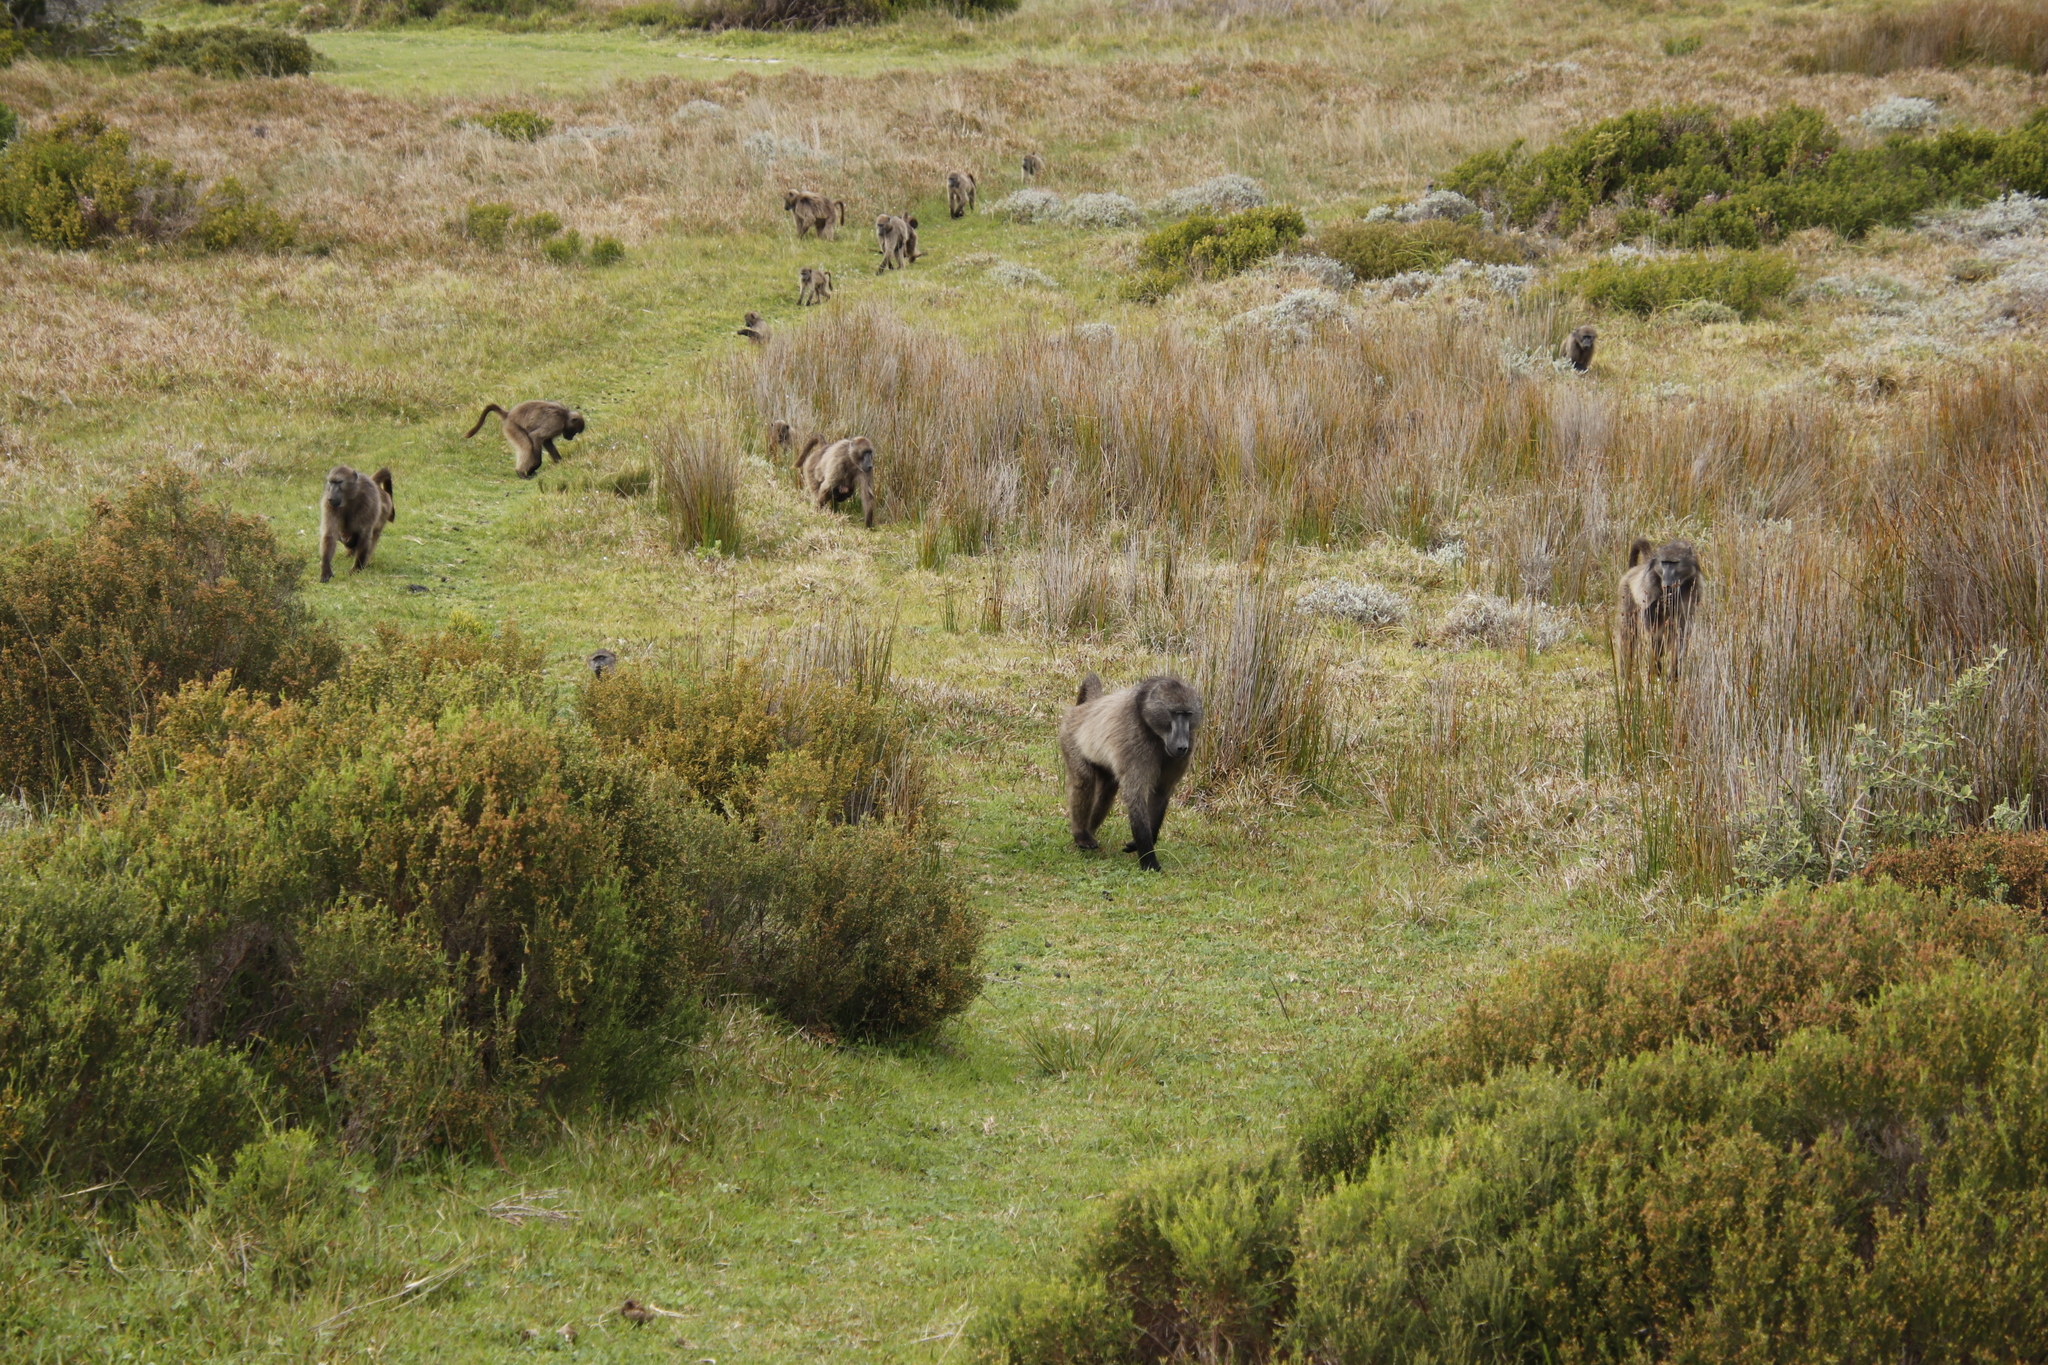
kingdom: Animalia
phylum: Chordata
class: Mammalia
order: Primates
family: Cercopithecidae
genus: Papio
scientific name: Papio ursinus
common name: Chacma baboon
